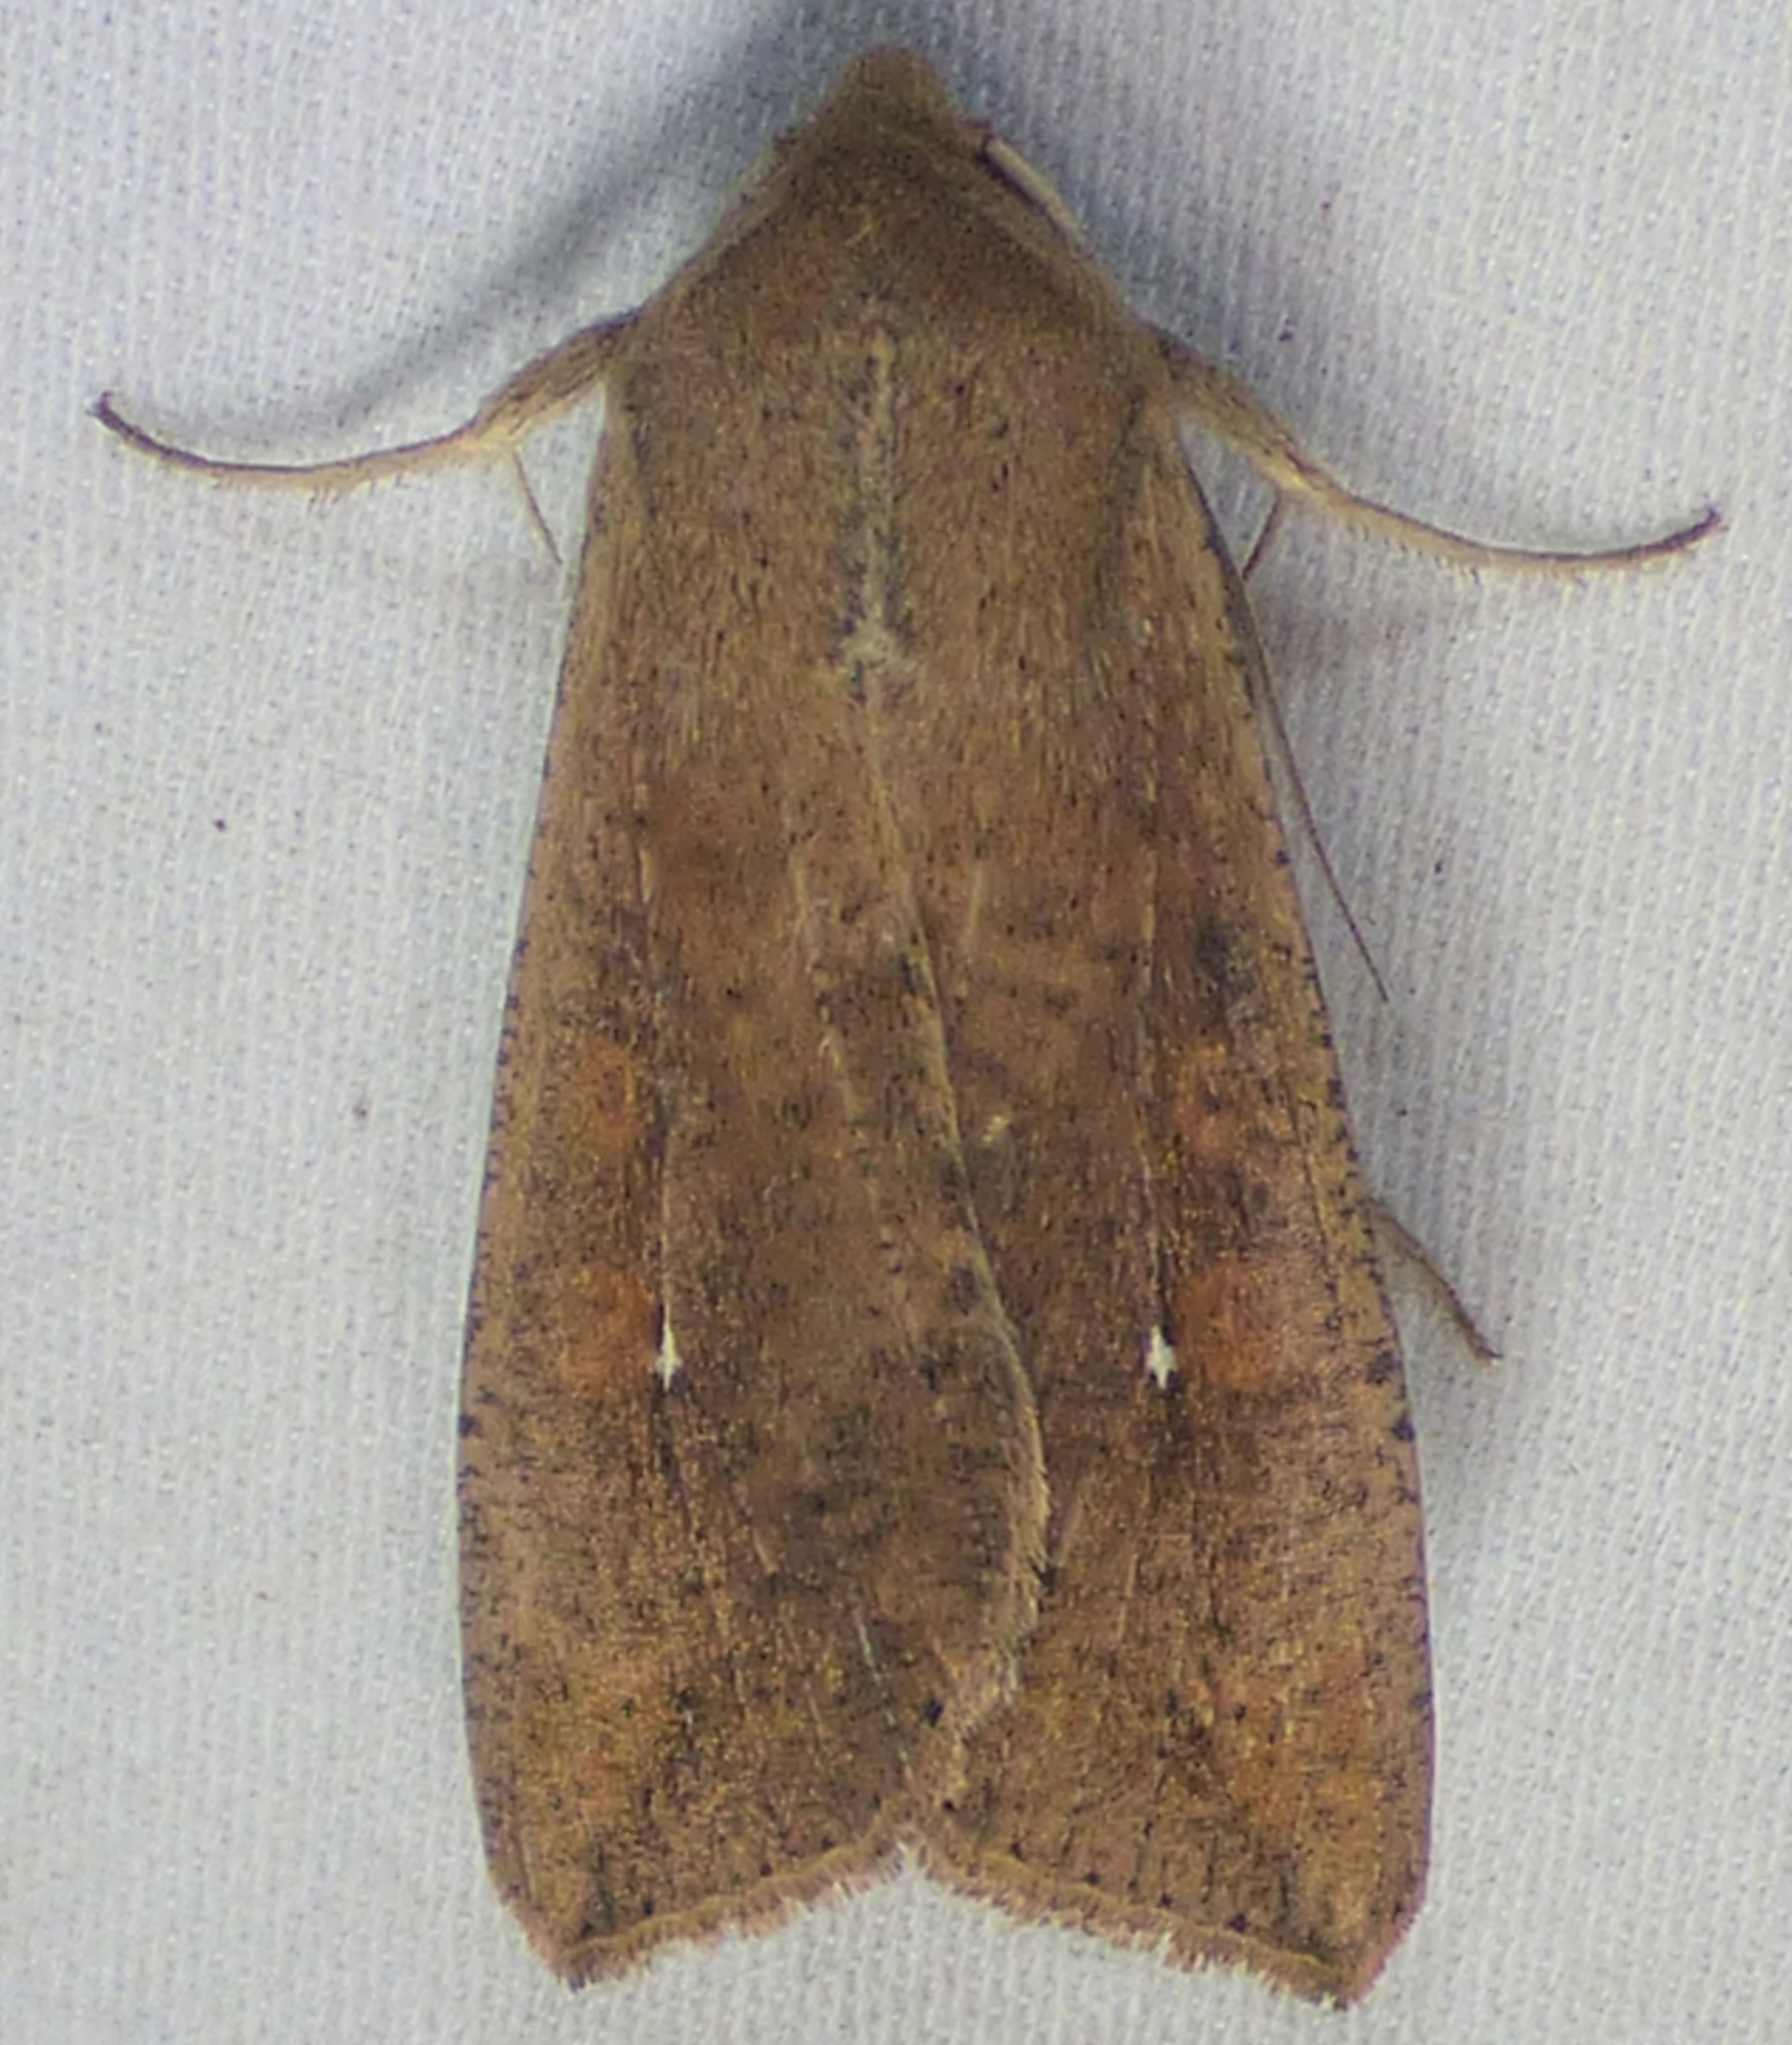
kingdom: Animalia
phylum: Arthropoda
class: Insecta
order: Lepidoptera
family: Noctuidae
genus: Mythimna
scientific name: Mythimna unipuncta
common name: White-speck
